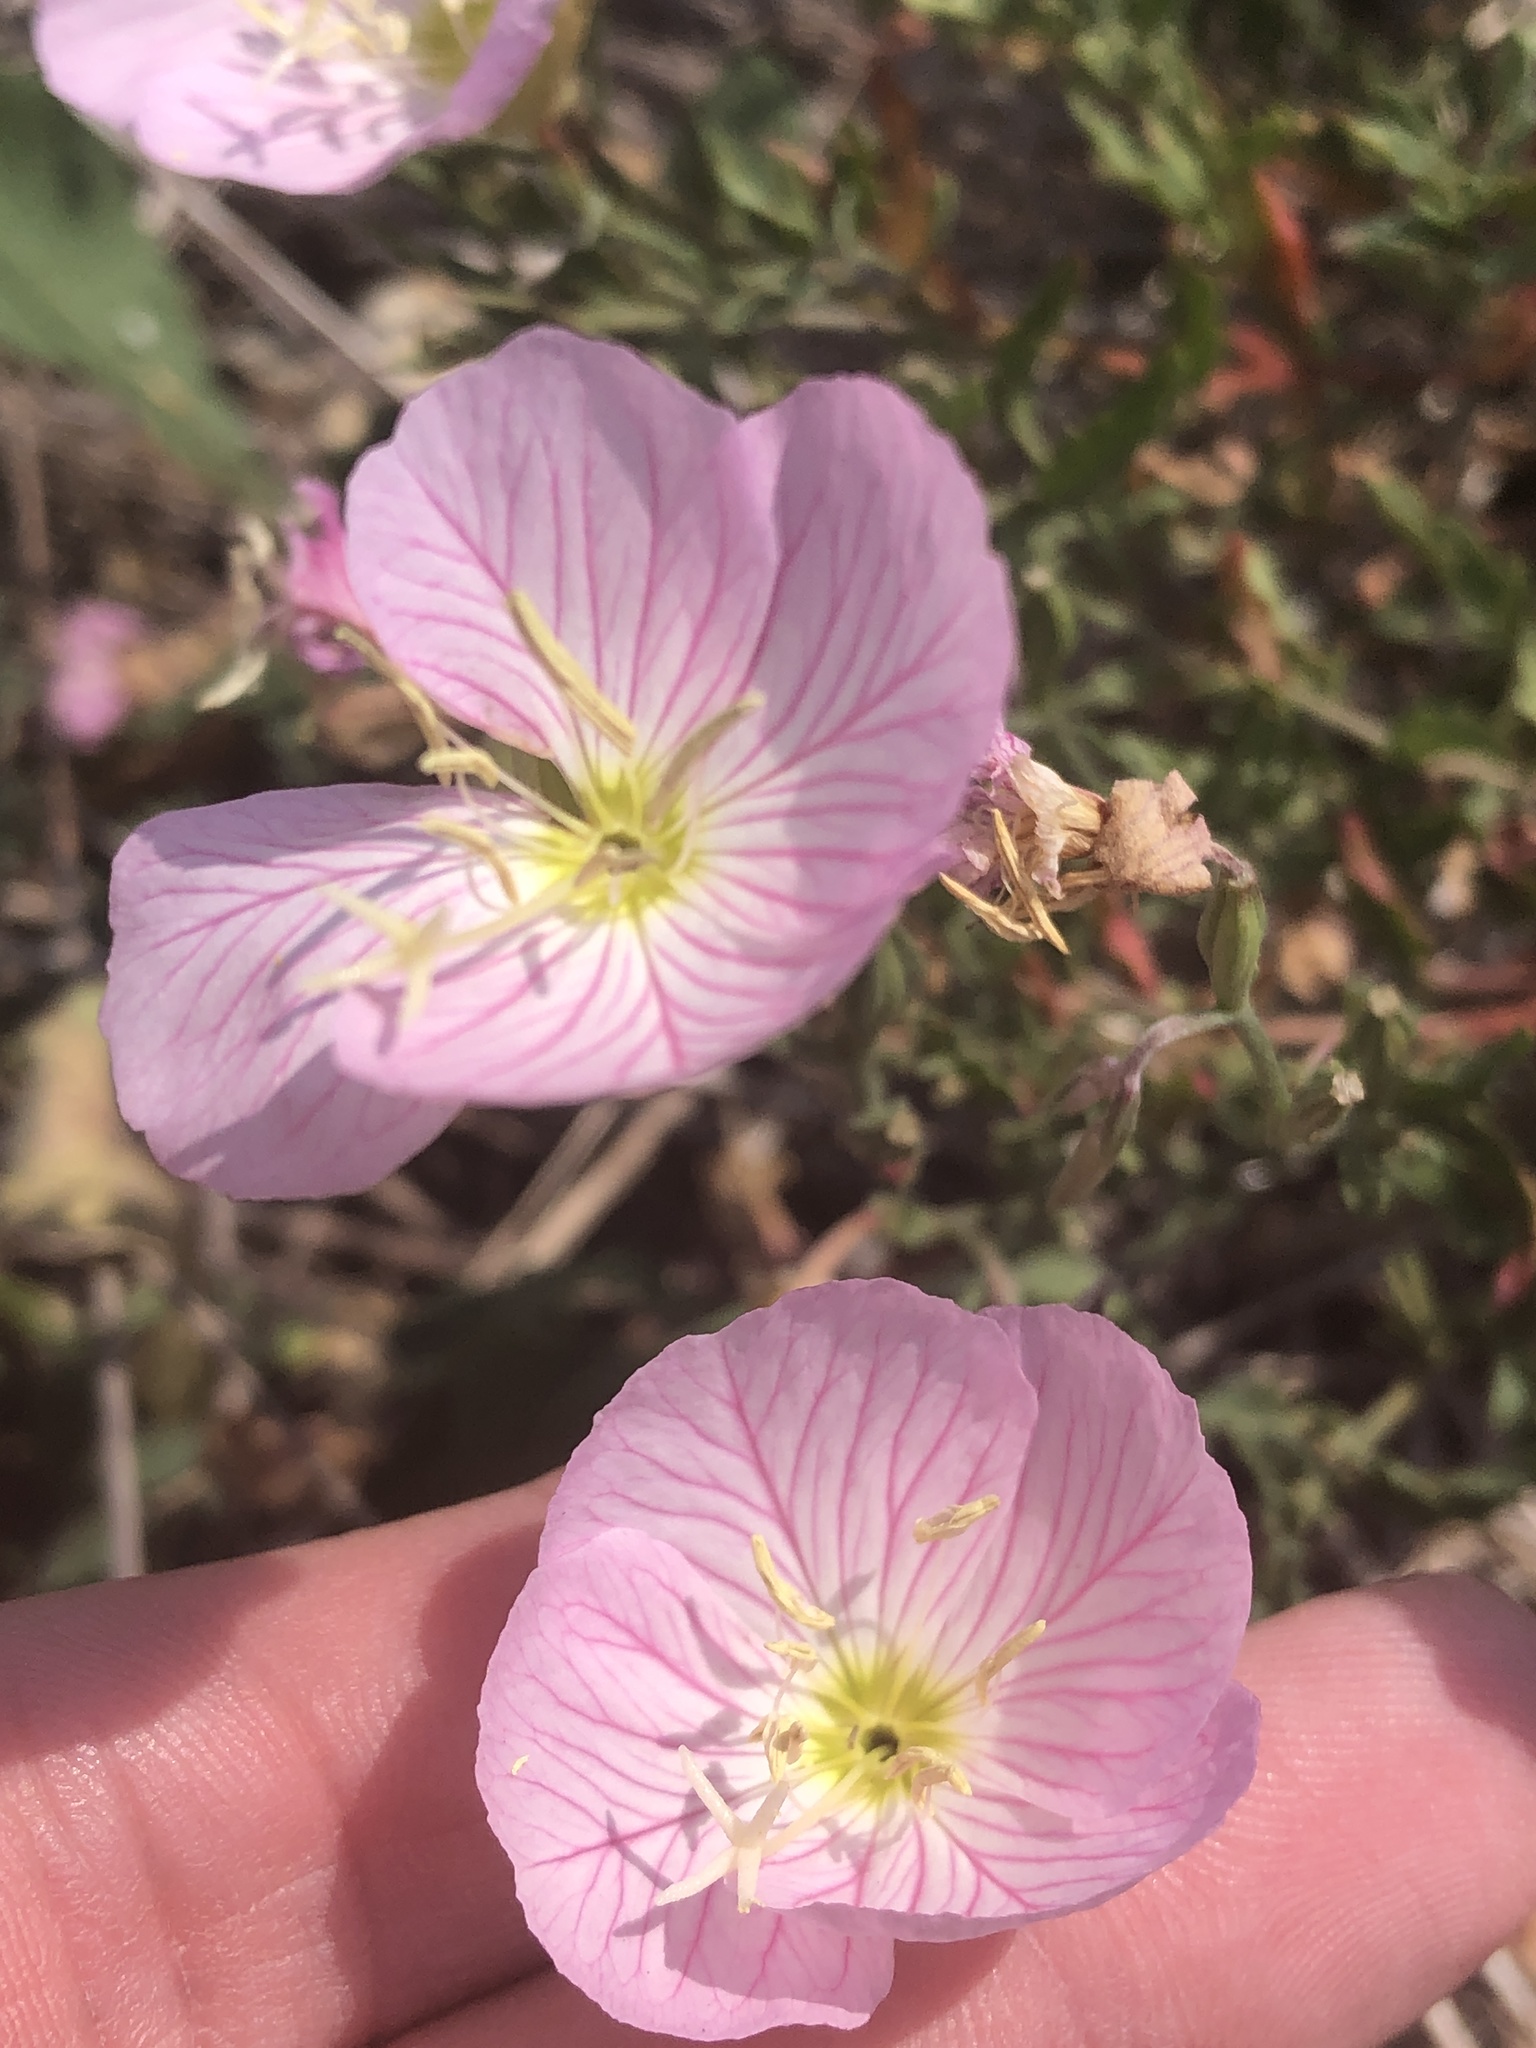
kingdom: Plantae
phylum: Tracheophyta
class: Magnoliopsida
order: Myrtales
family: Onagraceae
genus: Oenothera
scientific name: Oenothera speciosa
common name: White evening-primrose
